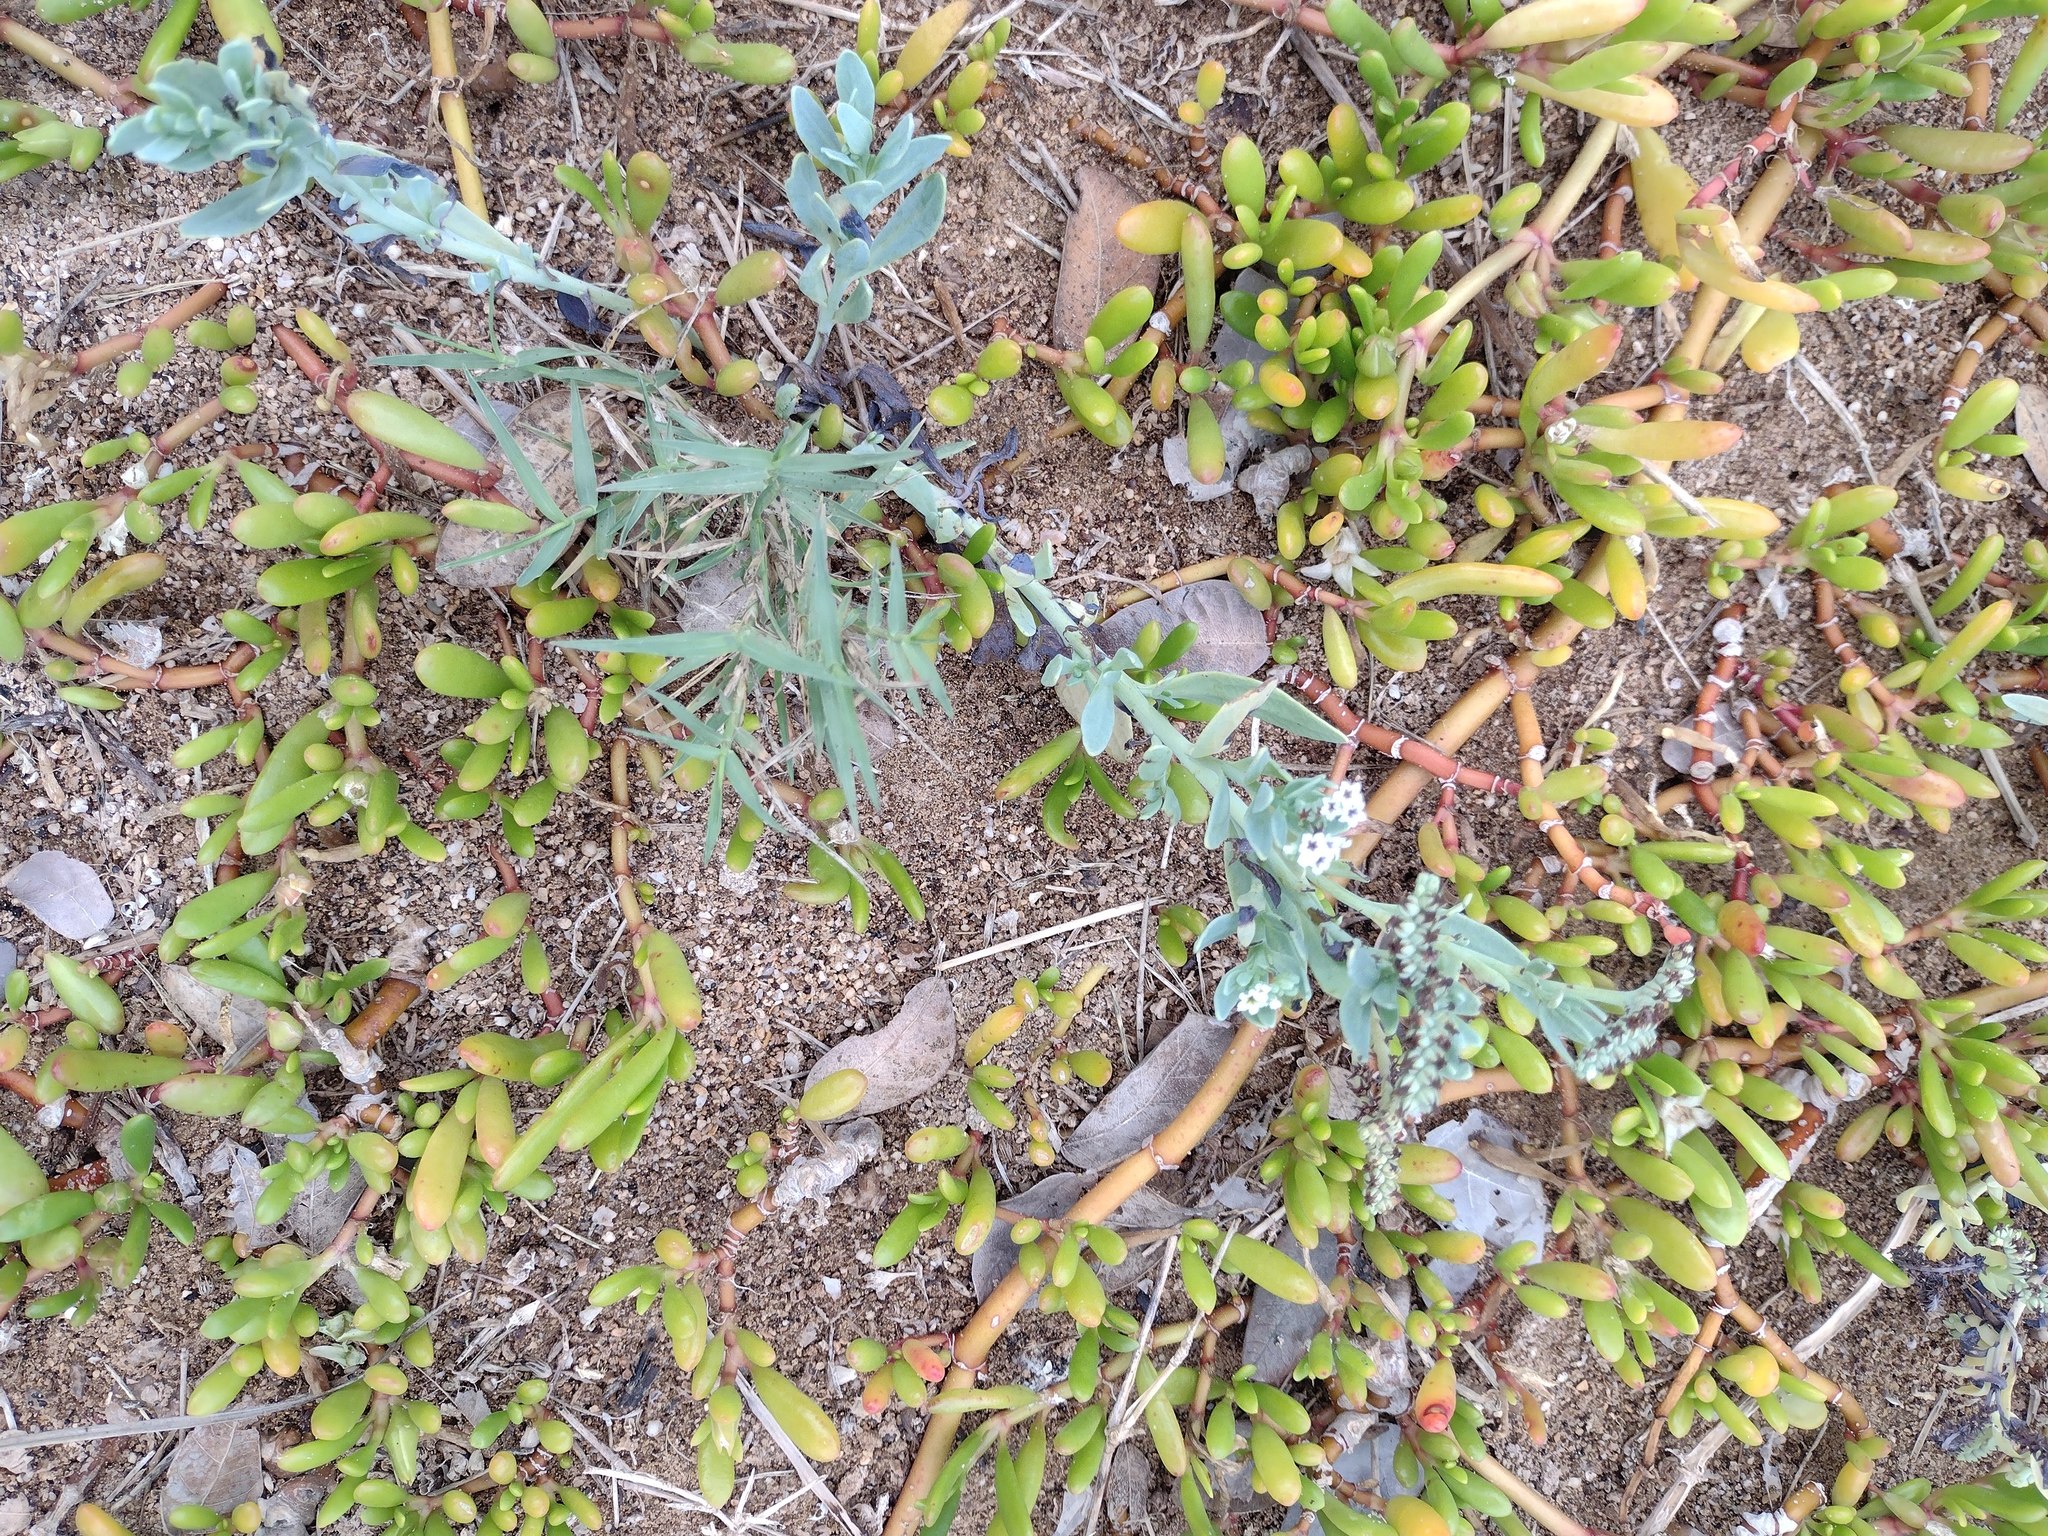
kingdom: Plantae
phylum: Tracheophyta
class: Magnoliopsida
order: Boraginales
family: Heliotropiaceae
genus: Heliotropium
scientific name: Heliotropium curassavicum
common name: Seaside heliotrope
